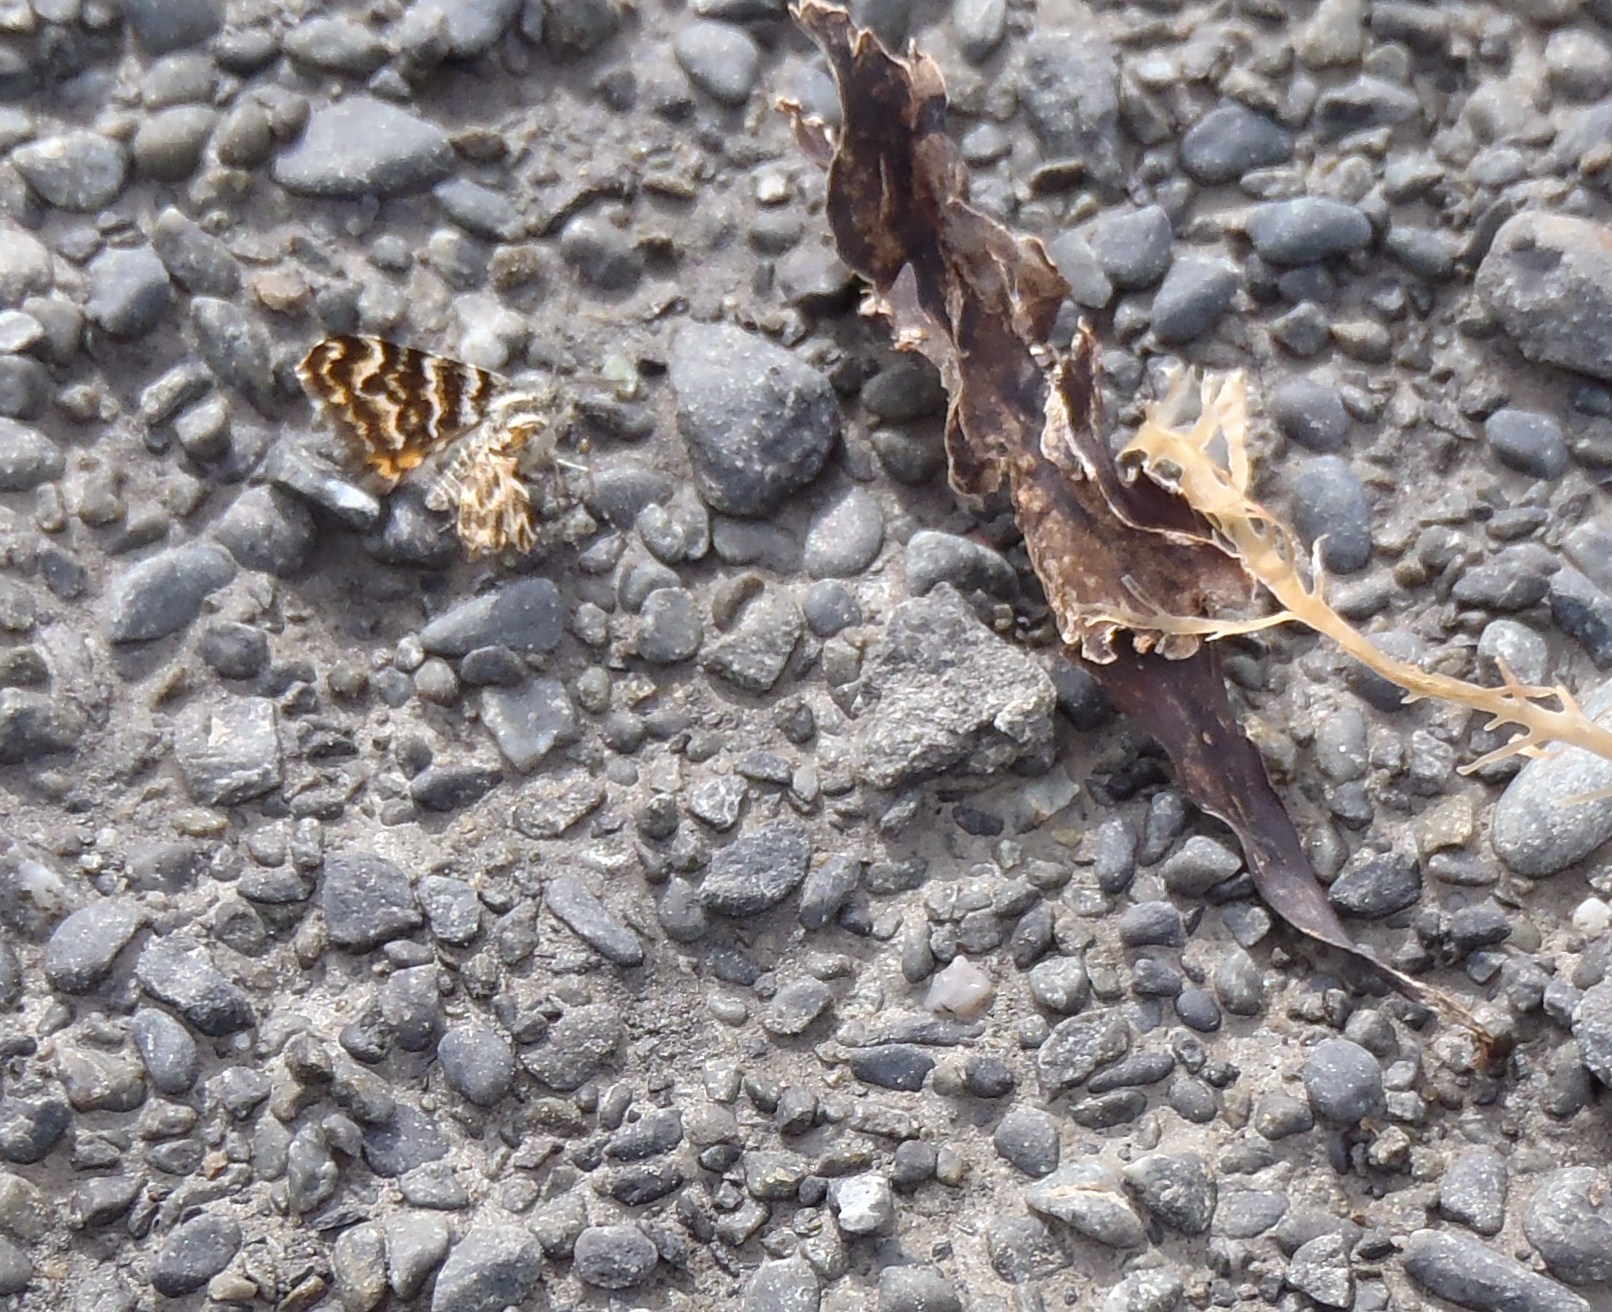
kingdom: Animalia
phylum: Arthropoda
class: Insecta
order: Lepidoptera
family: Geometridae
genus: Notoreas
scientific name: Notoreas perornata
